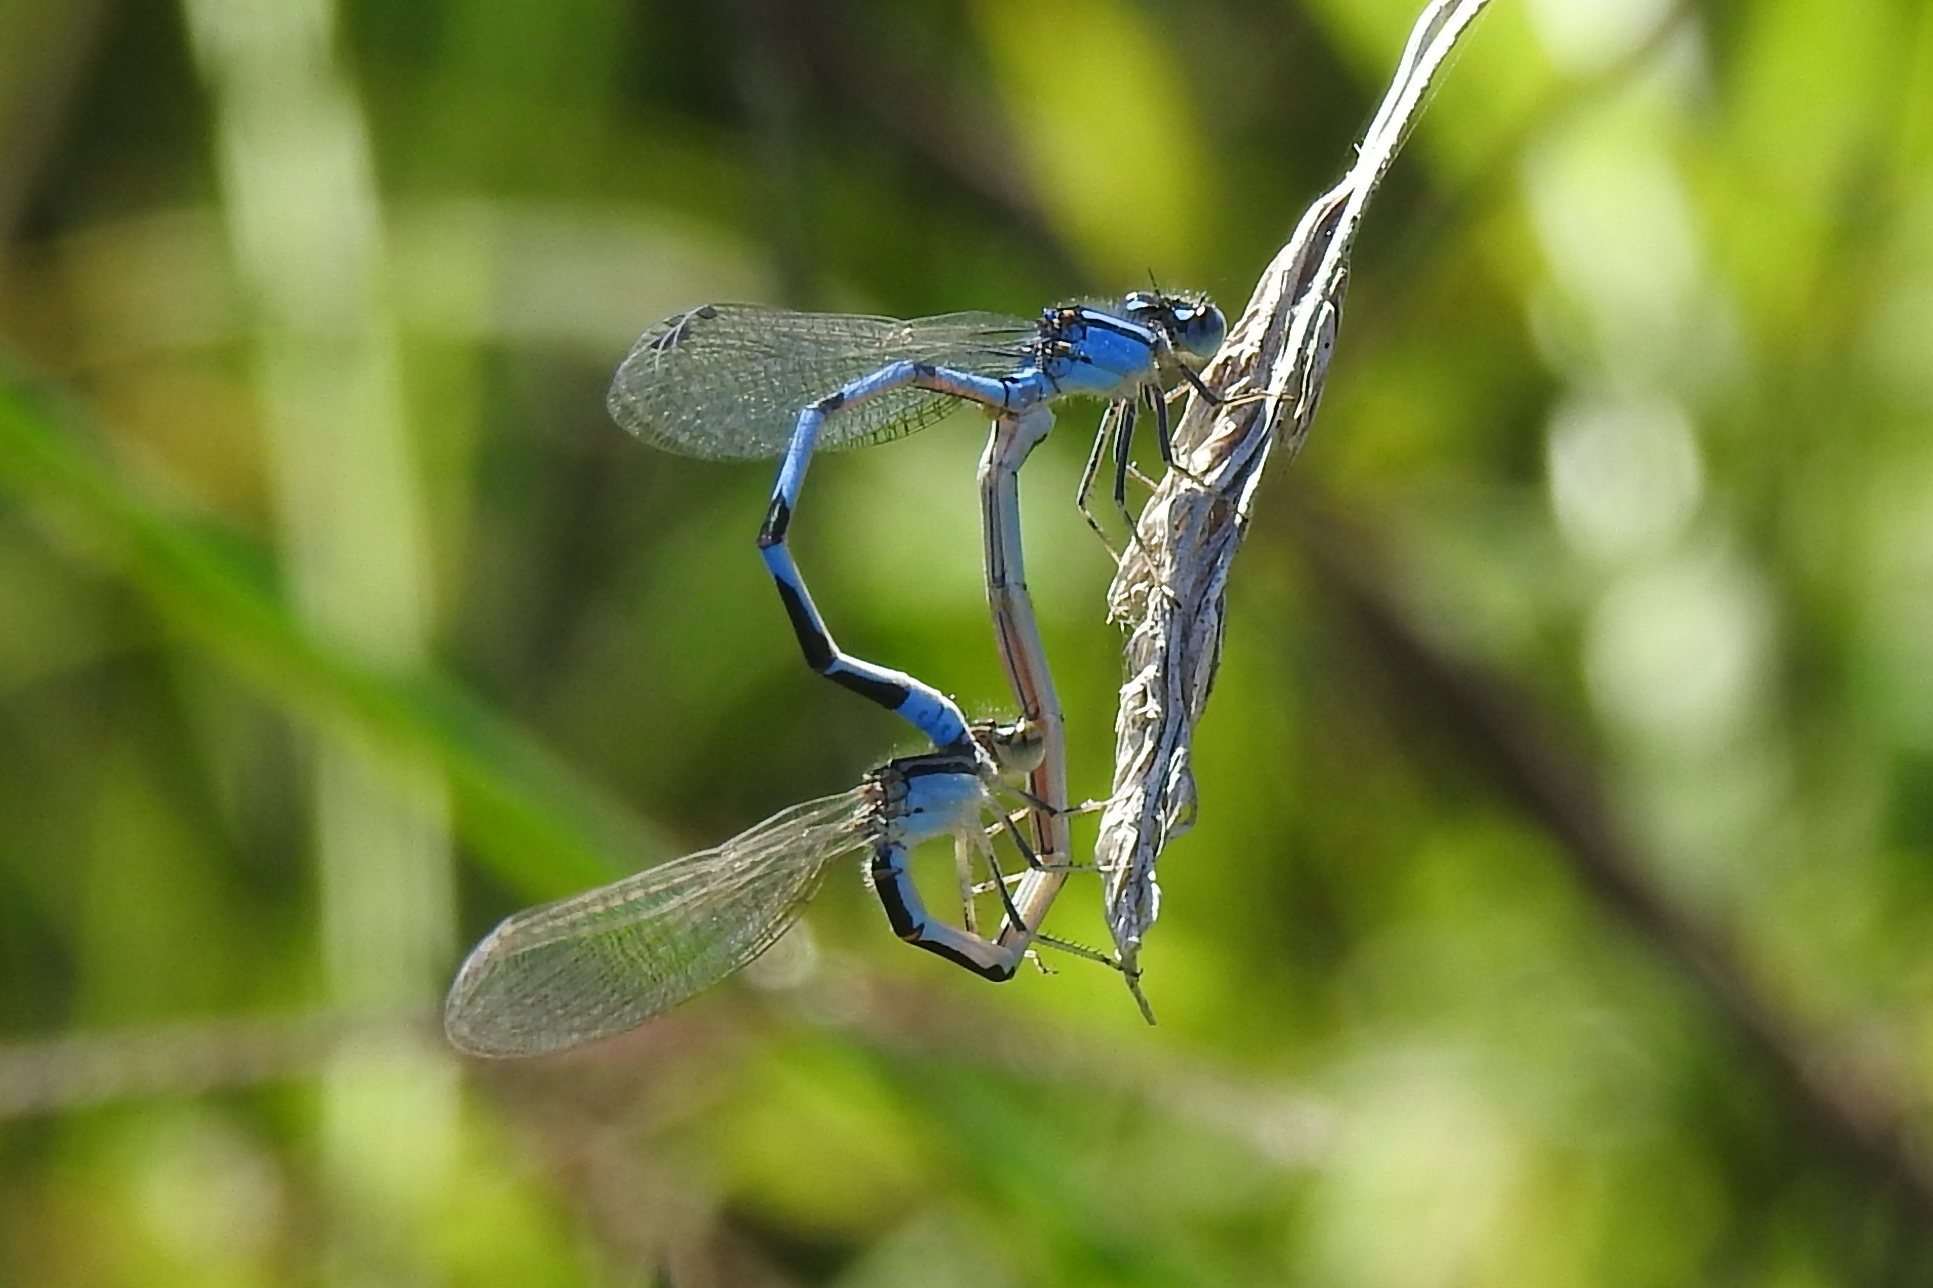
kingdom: Animalia
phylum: Arthropoda
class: Insecta
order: Odonata
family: Coenagrionidae
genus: Enallagma
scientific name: Enallagma civile
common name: Damselfly
